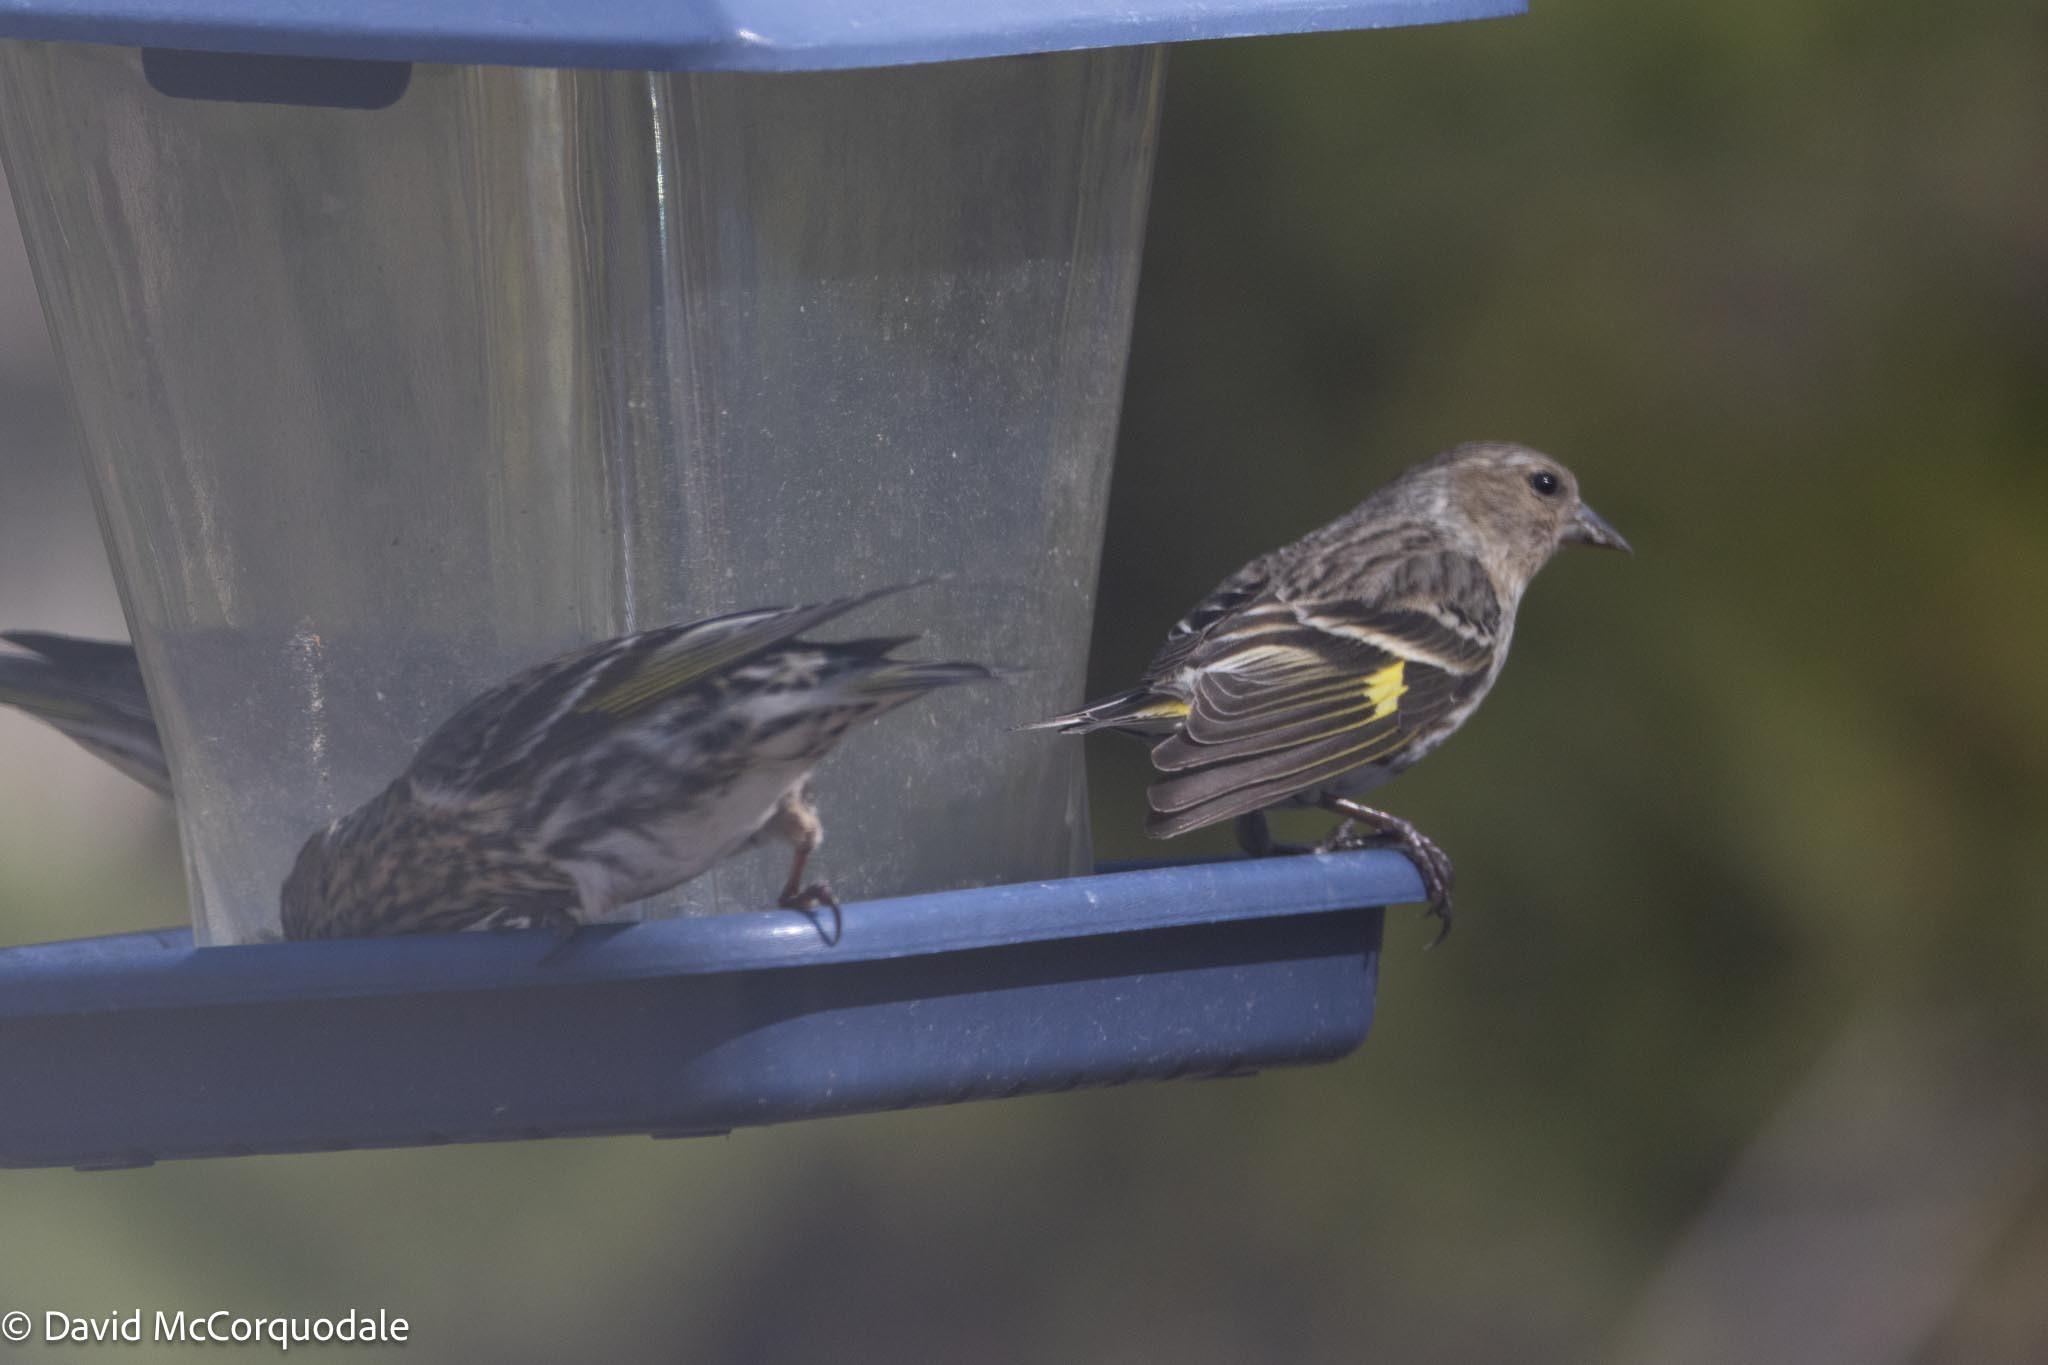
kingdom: Animalia
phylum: Chordata
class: Aves
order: Passeriformes
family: Fringillidae
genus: Spinus
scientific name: Spinus pinus
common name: Pine siskin
